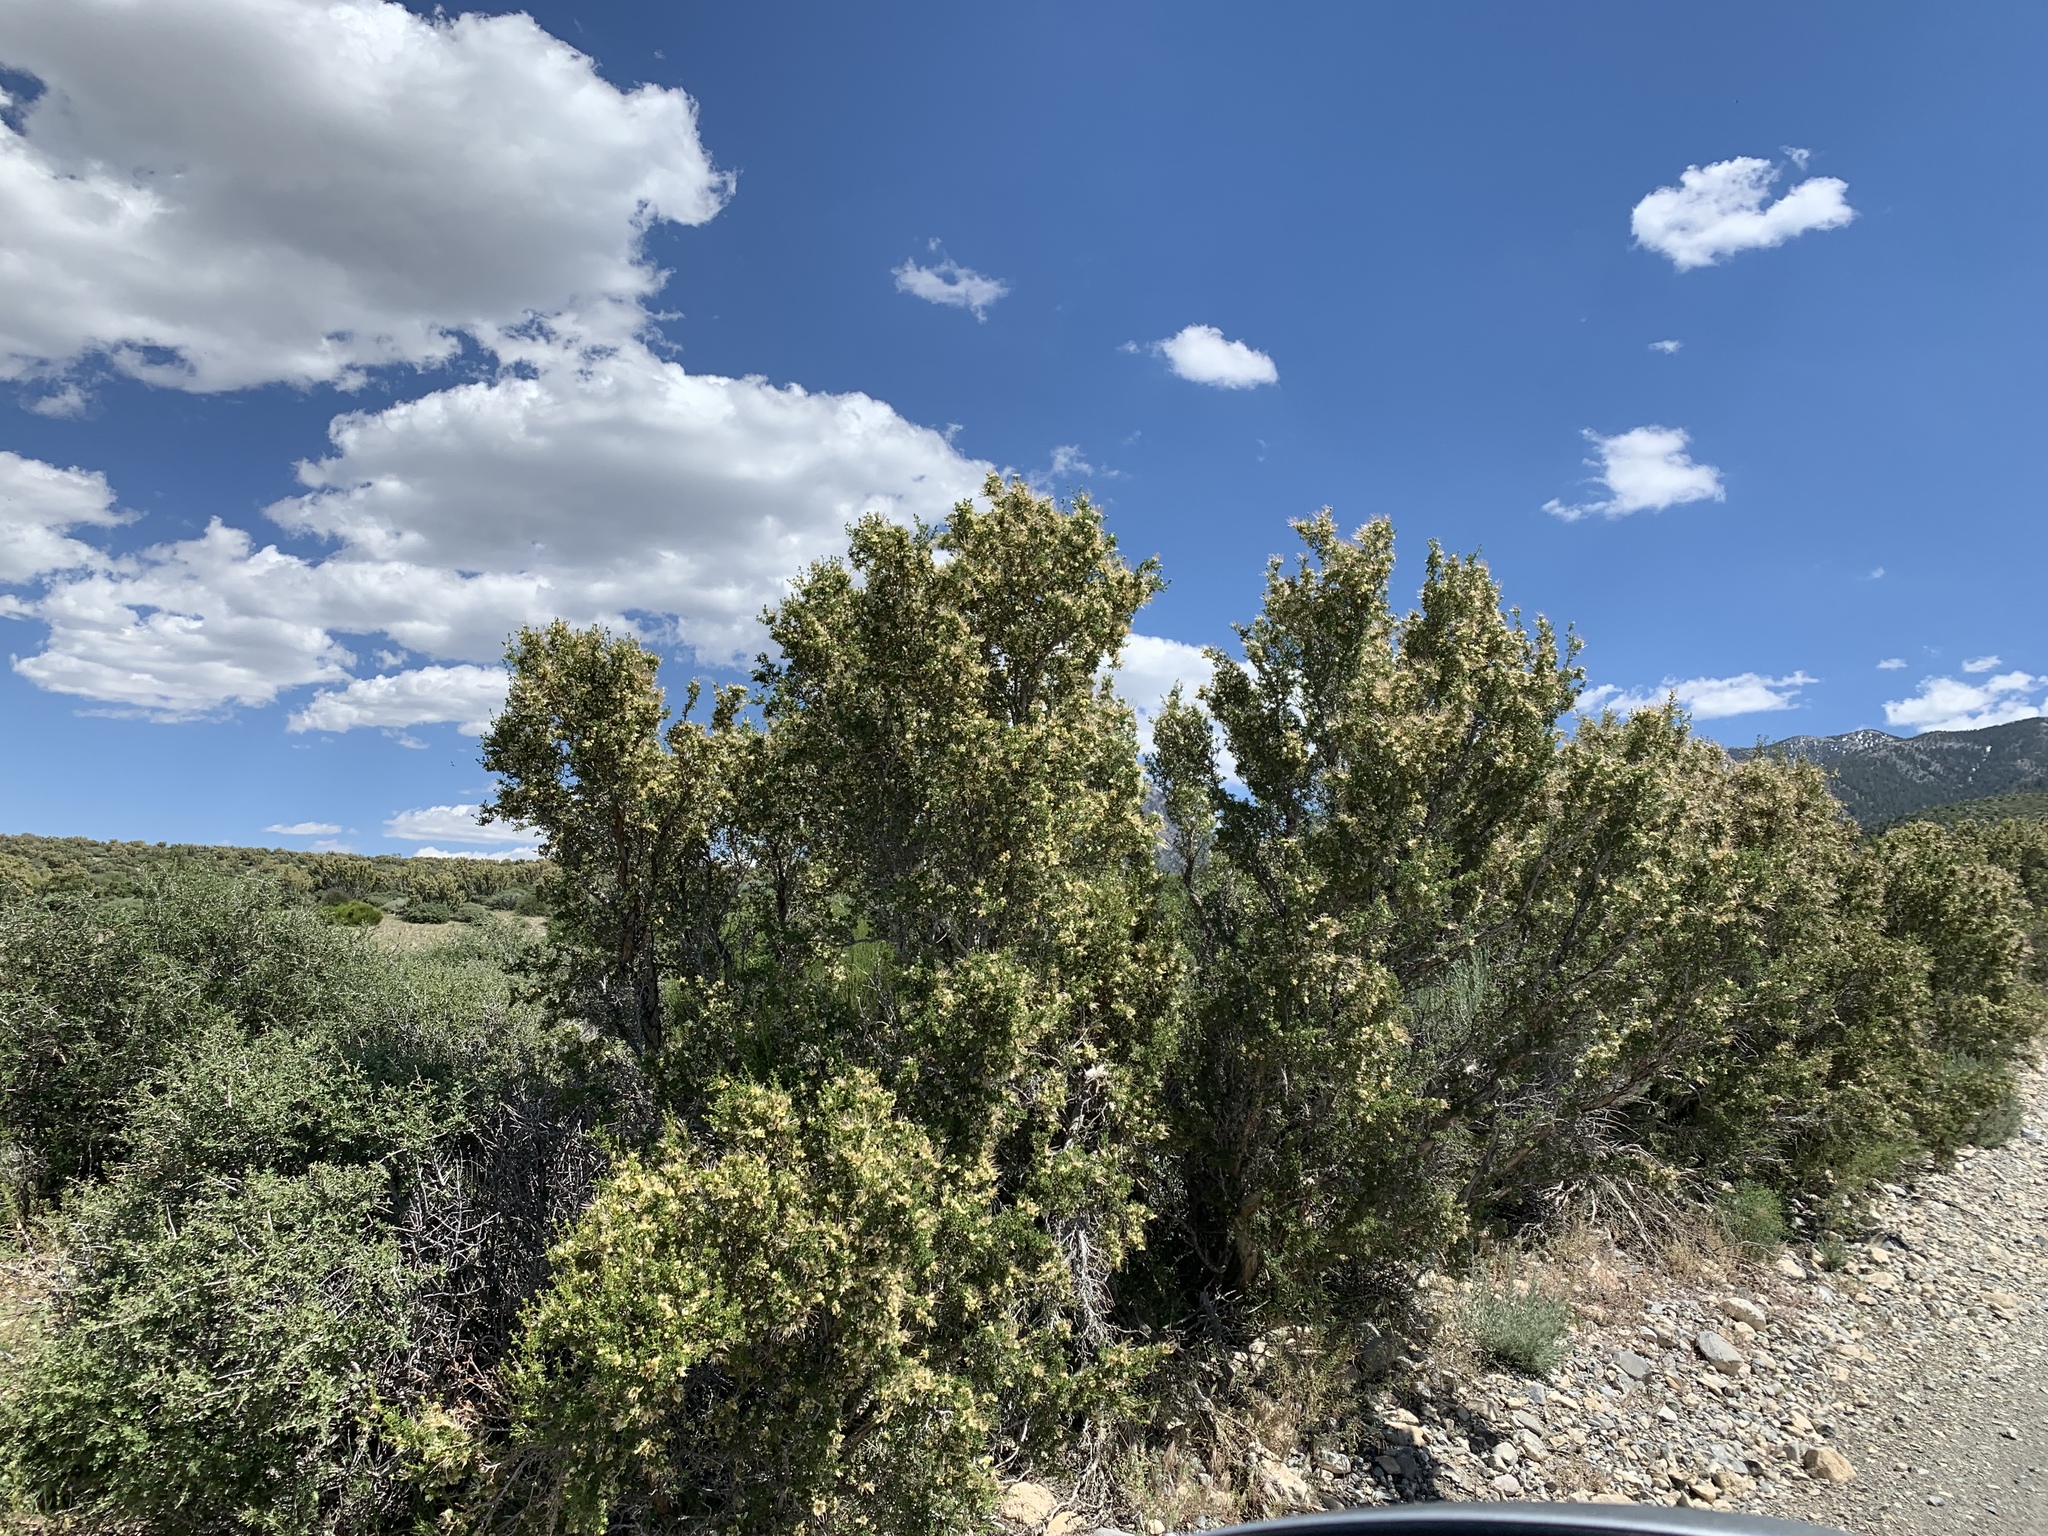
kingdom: Plantae
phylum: Tracheophyta
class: Magnoliopsida
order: Rosales
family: Rosaceae
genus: Purshia
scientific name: Purshia stansburiana
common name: Stansbury's cliffrose
